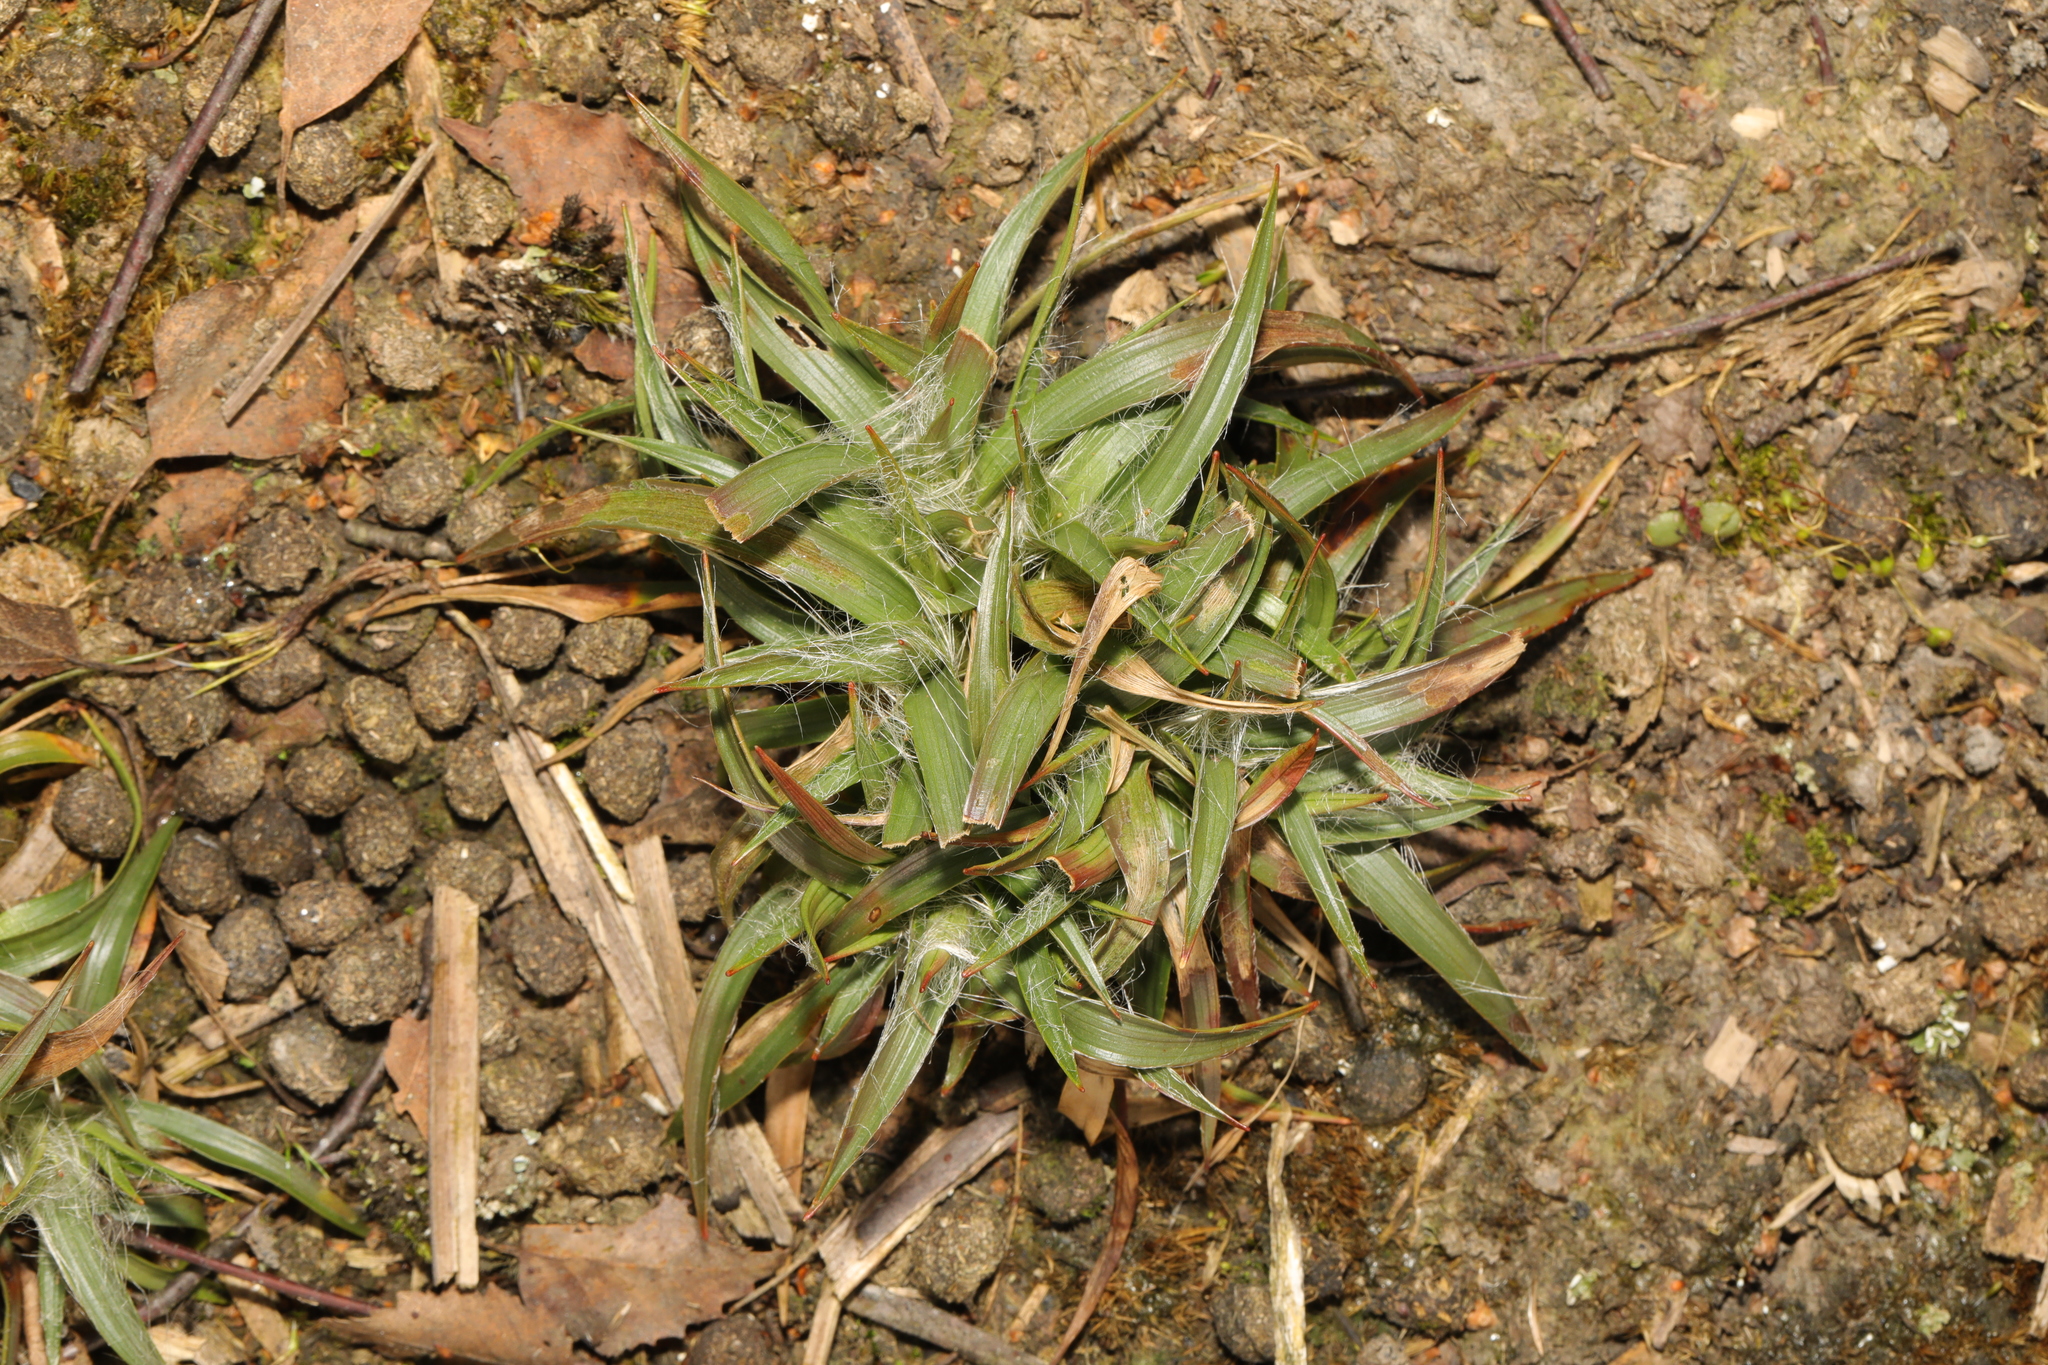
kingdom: Plantae
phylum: Tracheophyta
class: Liliopsida
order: Poales
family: Juncaceae
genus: Luzula
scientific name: Luzula campestris
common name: Field wood-rush
